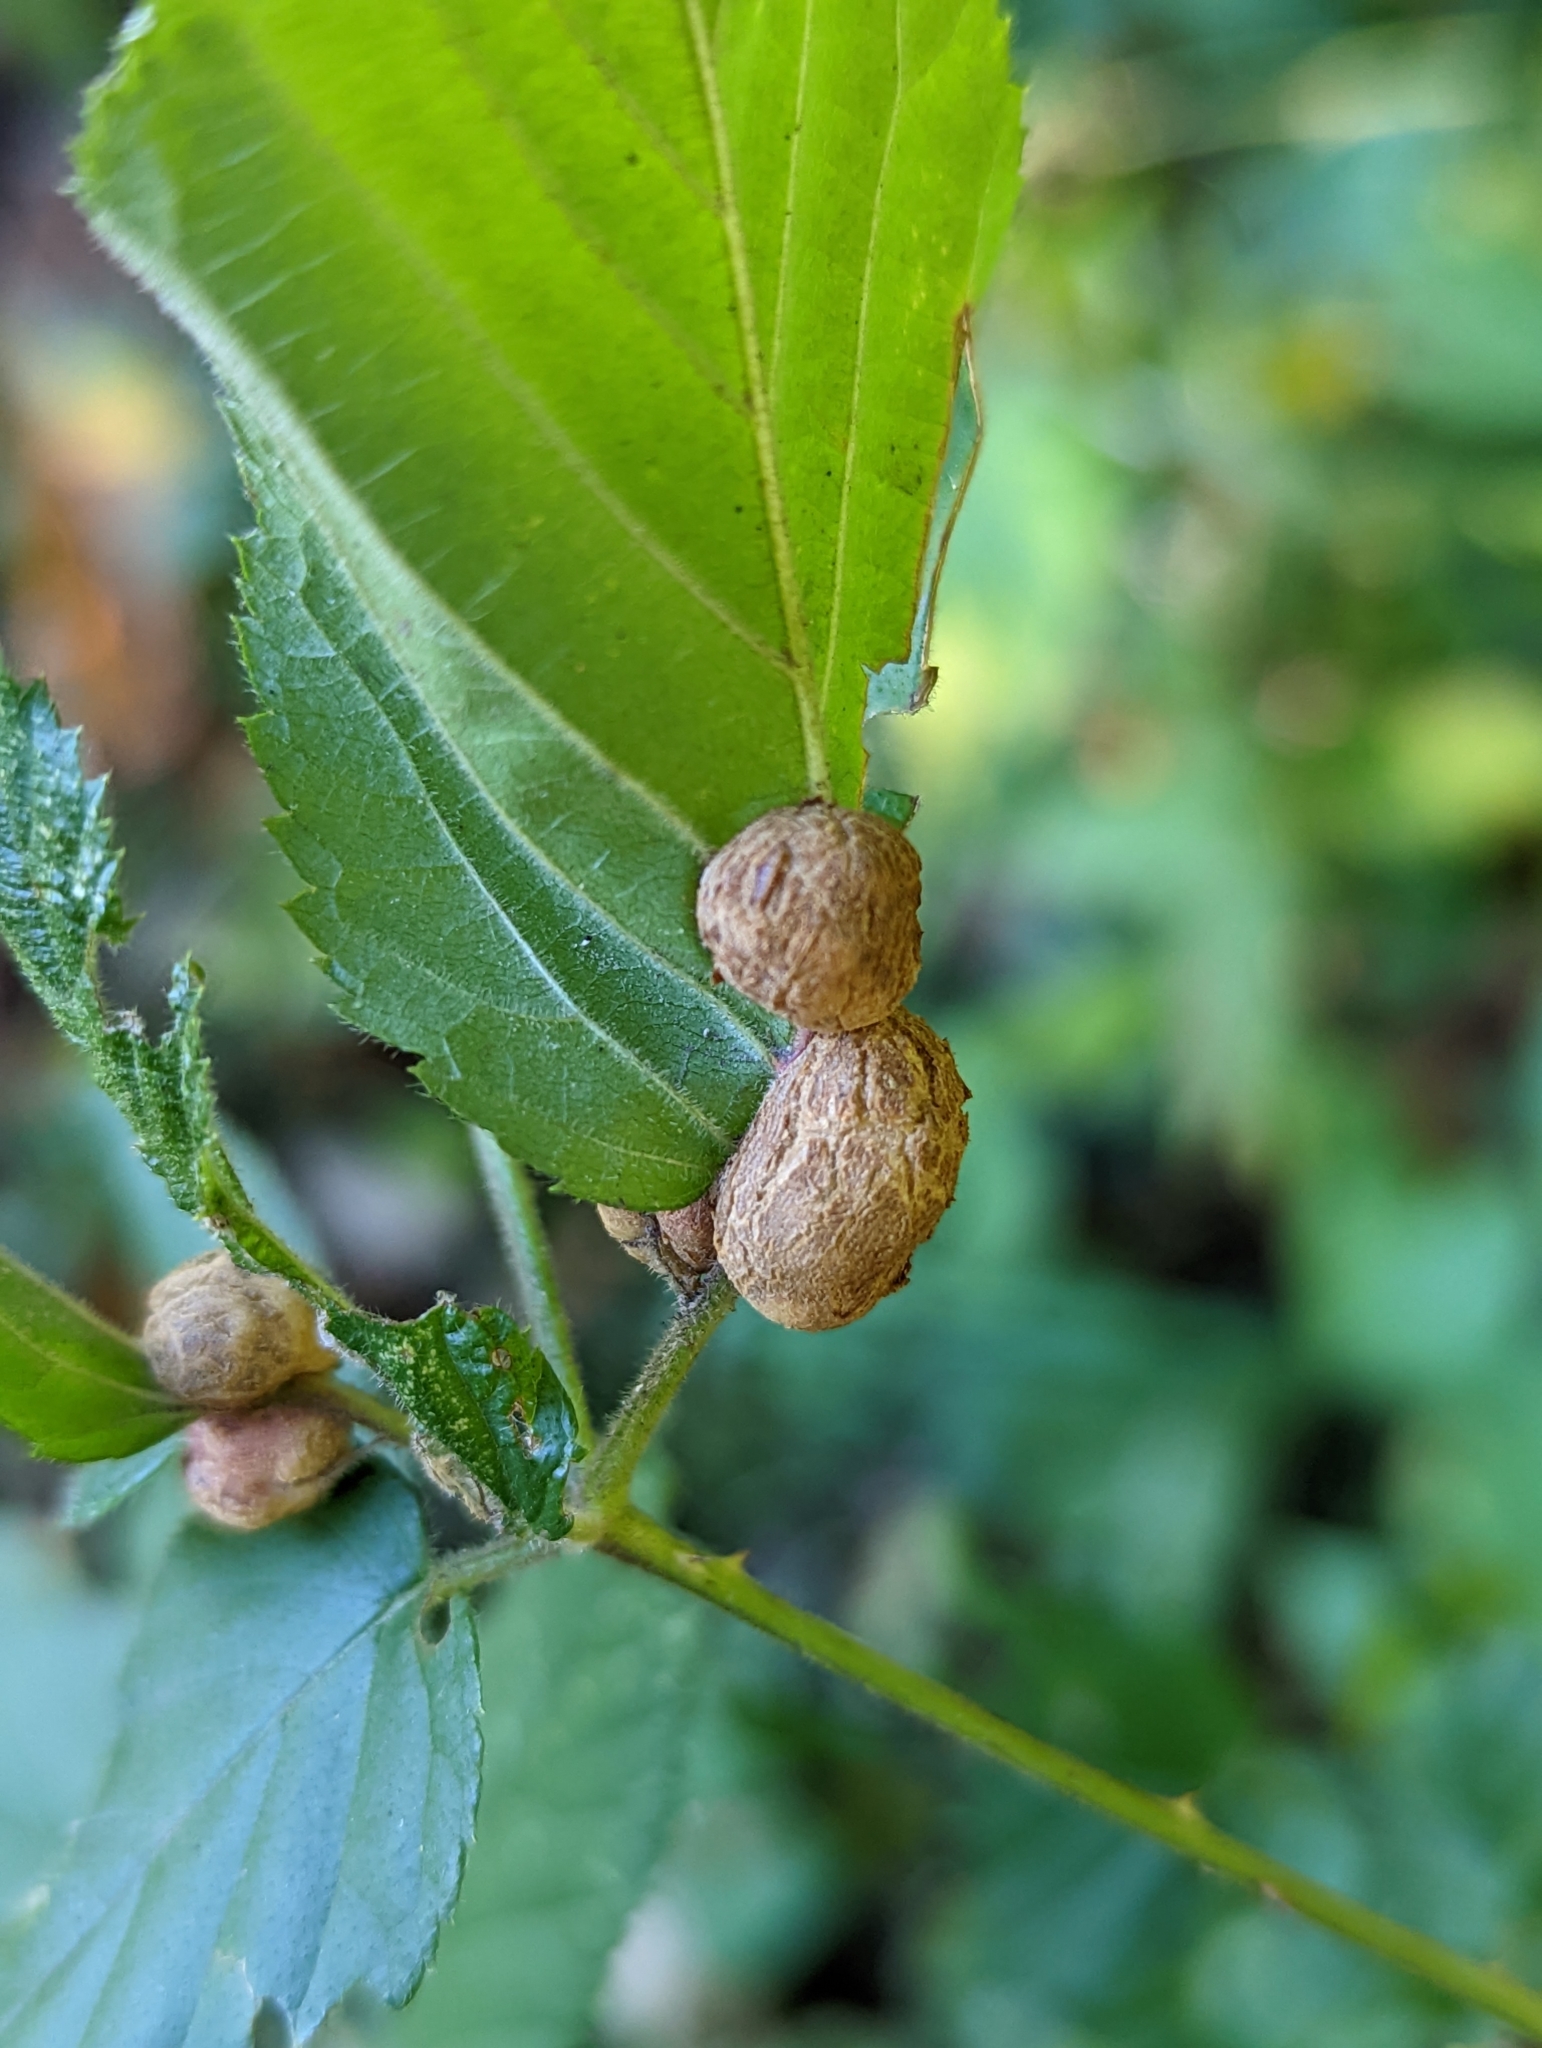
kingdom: Animalia
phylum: Arthropoda
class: Insecta
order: Diptera
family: Cecidomyiidae
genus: Neolasioptera
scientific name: Neolasioptera farinosa
